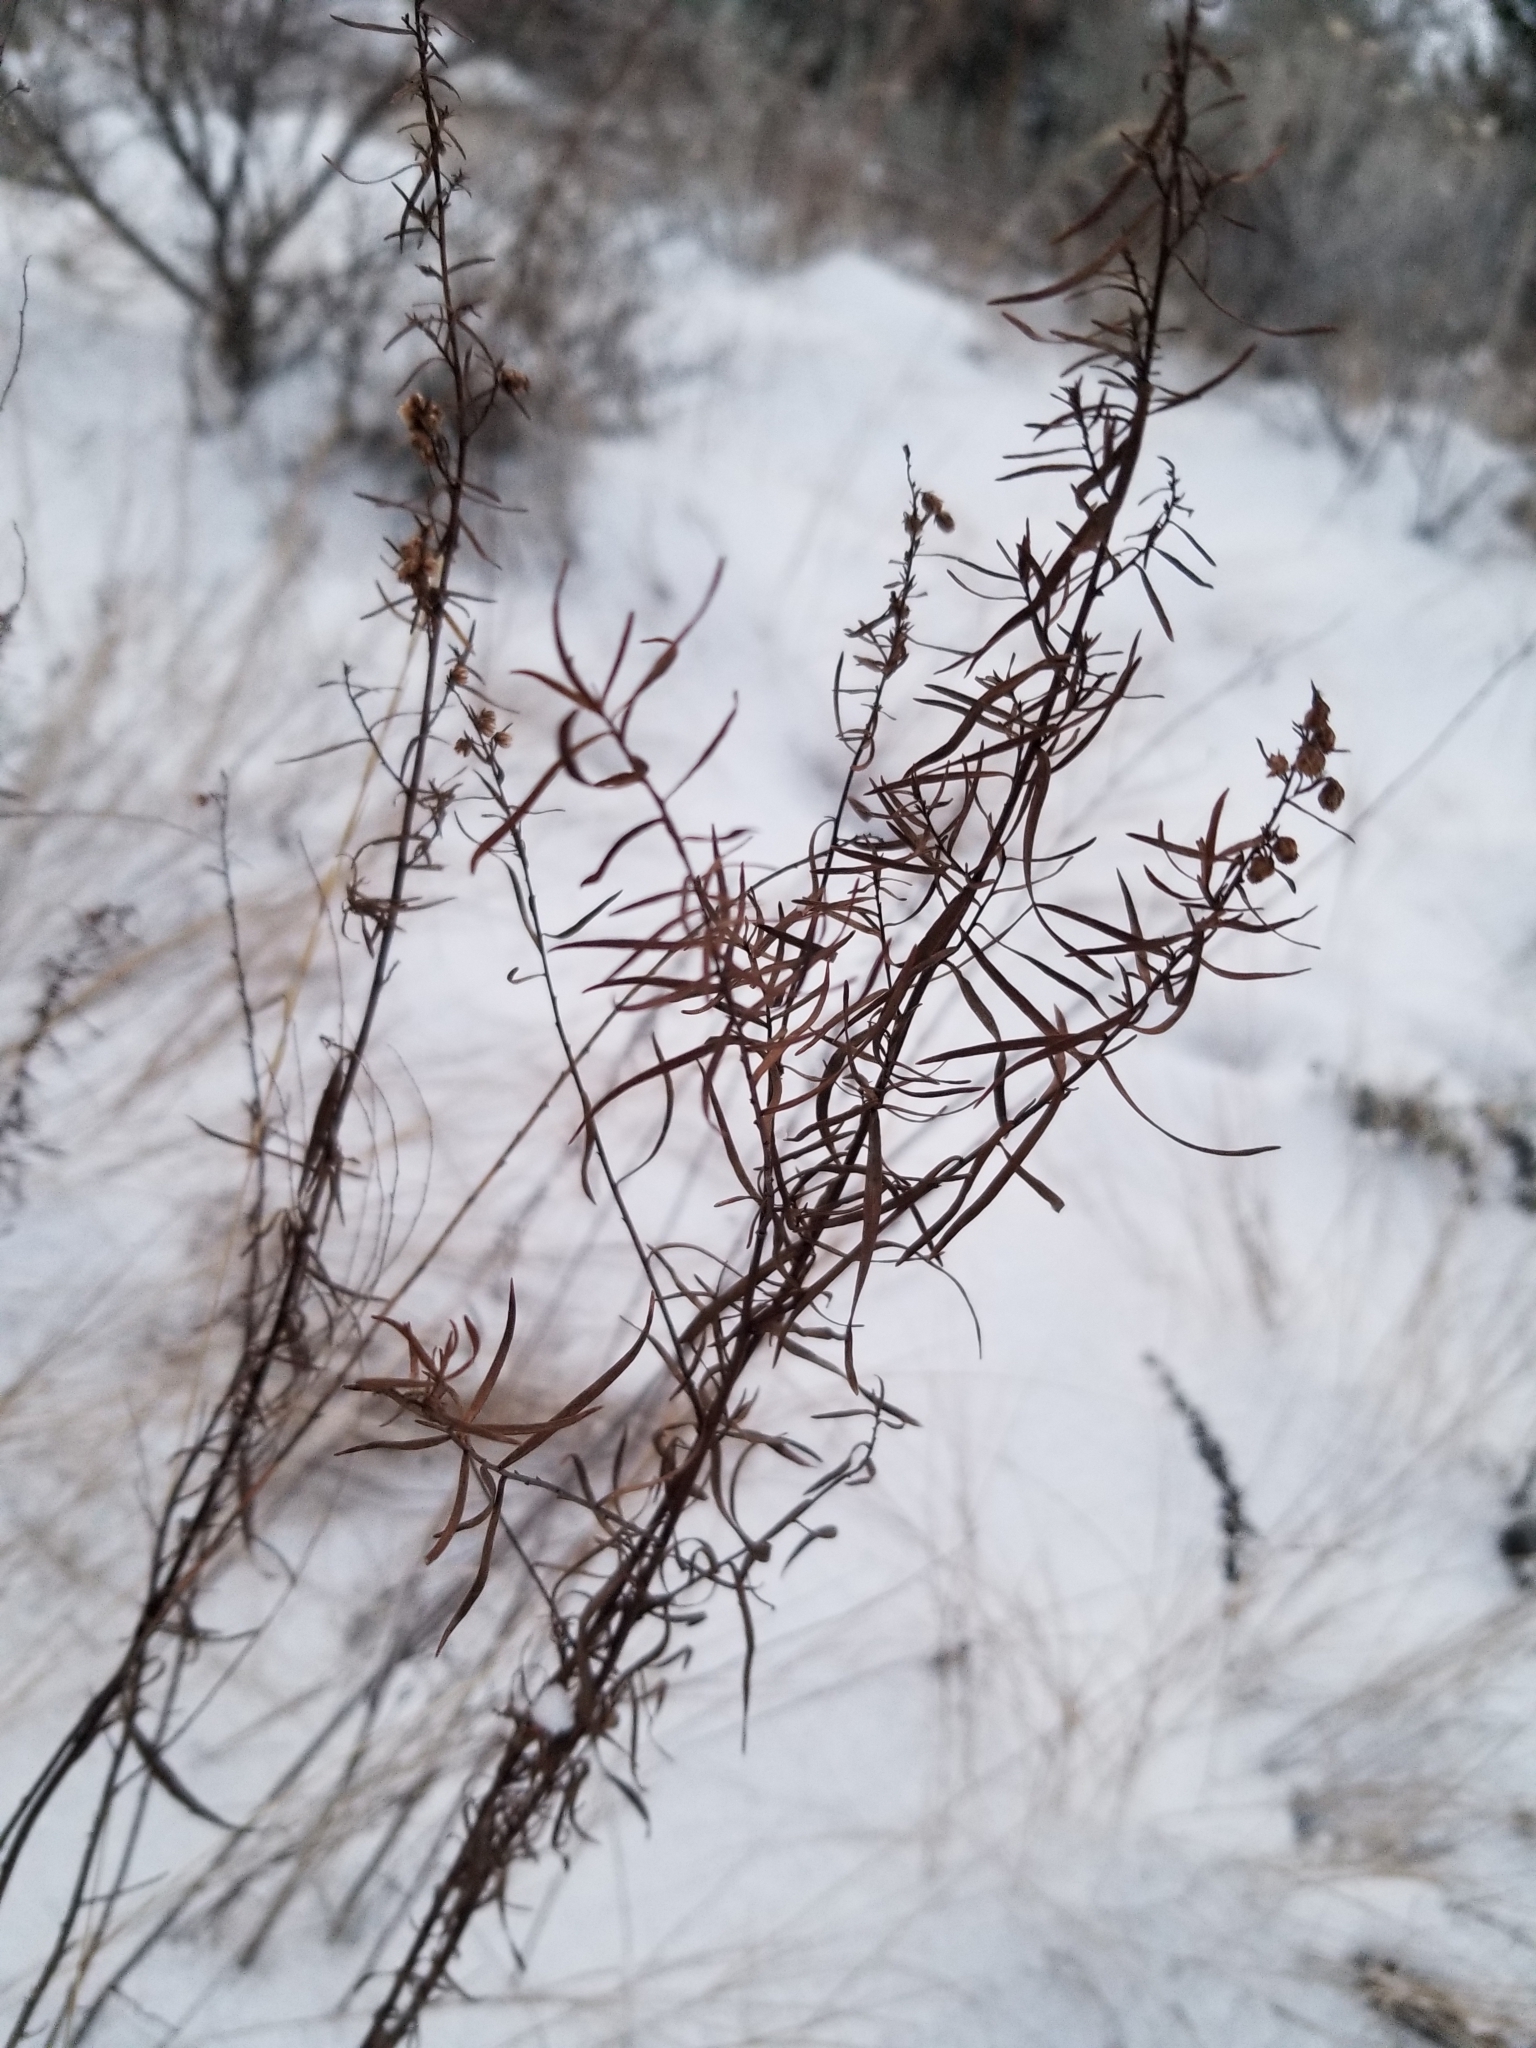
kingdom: Plantae
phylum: Tracheophyta
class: Magnoliopsida
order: Asterales
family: Asteraceae
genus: Artemisia
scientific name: Artemisia dracunculus
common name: Tarragon
